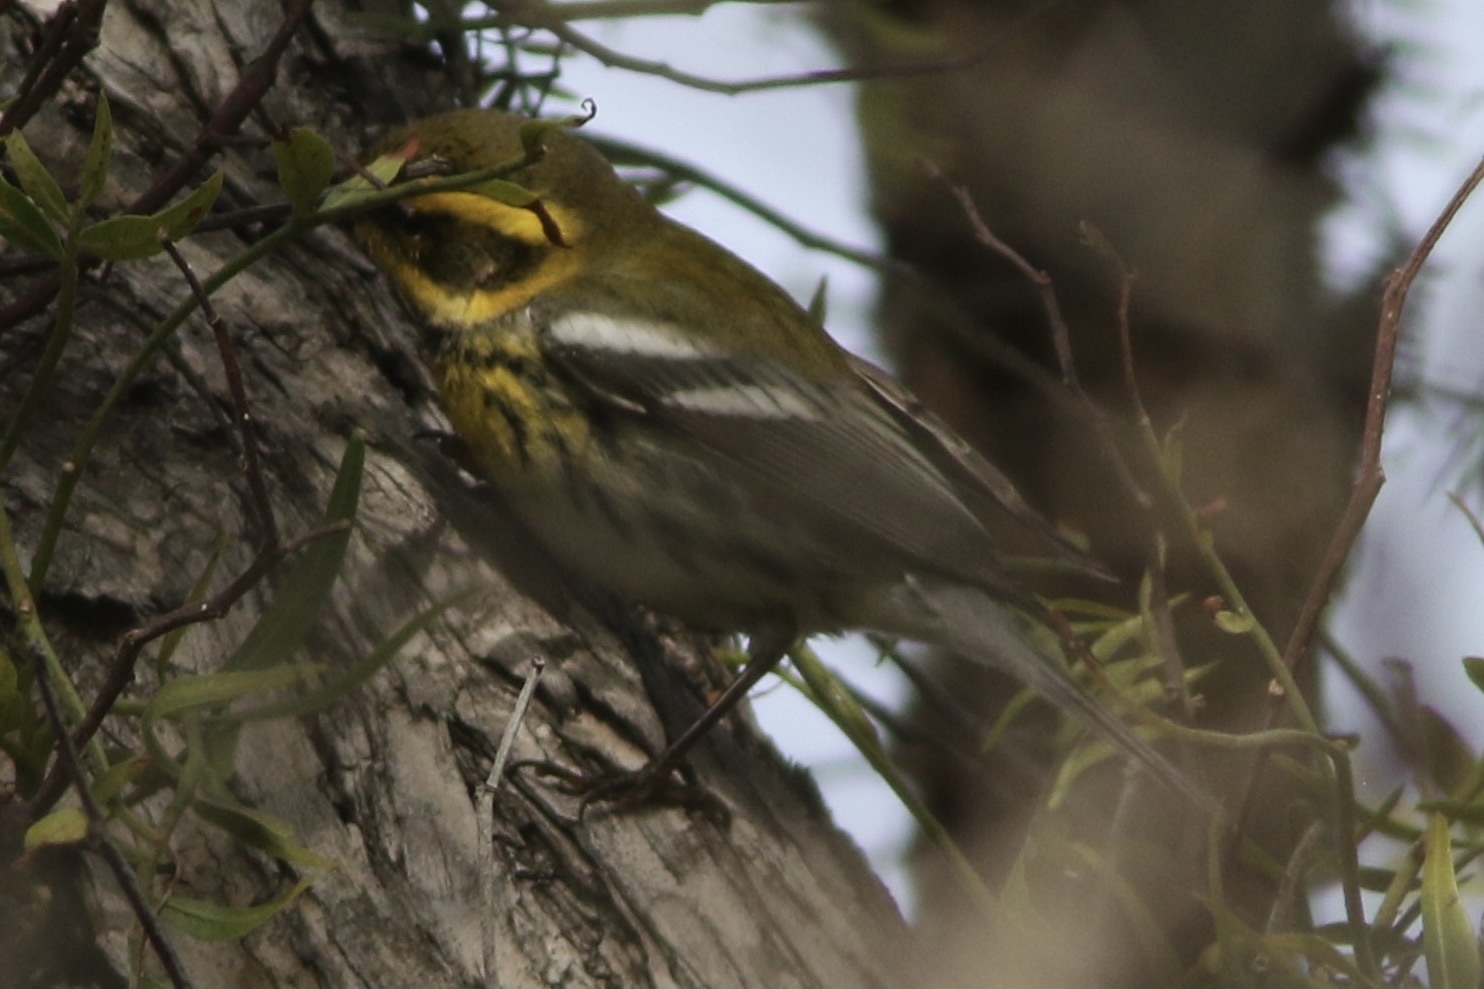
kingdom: Animalia
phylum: Chordata
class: Aves
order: Passeriformes
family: Parulidae
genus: Setophaga
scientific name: Setophaga townsendi
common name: Townsend's warbler
